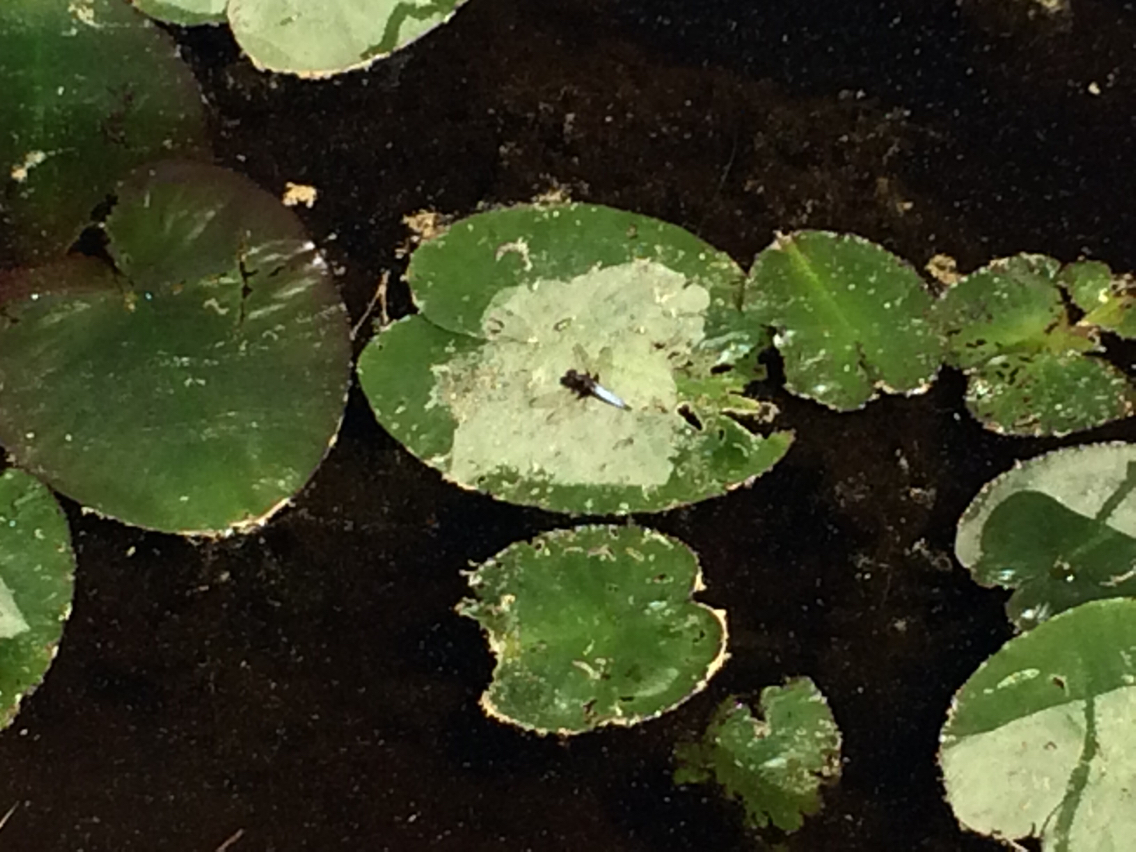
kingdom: Animalia
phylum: Arthropoda
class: Insecta
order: Odonata
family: Libellulidae
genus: Ladona
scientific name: Ladona exusta
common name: Libellule embrasée
